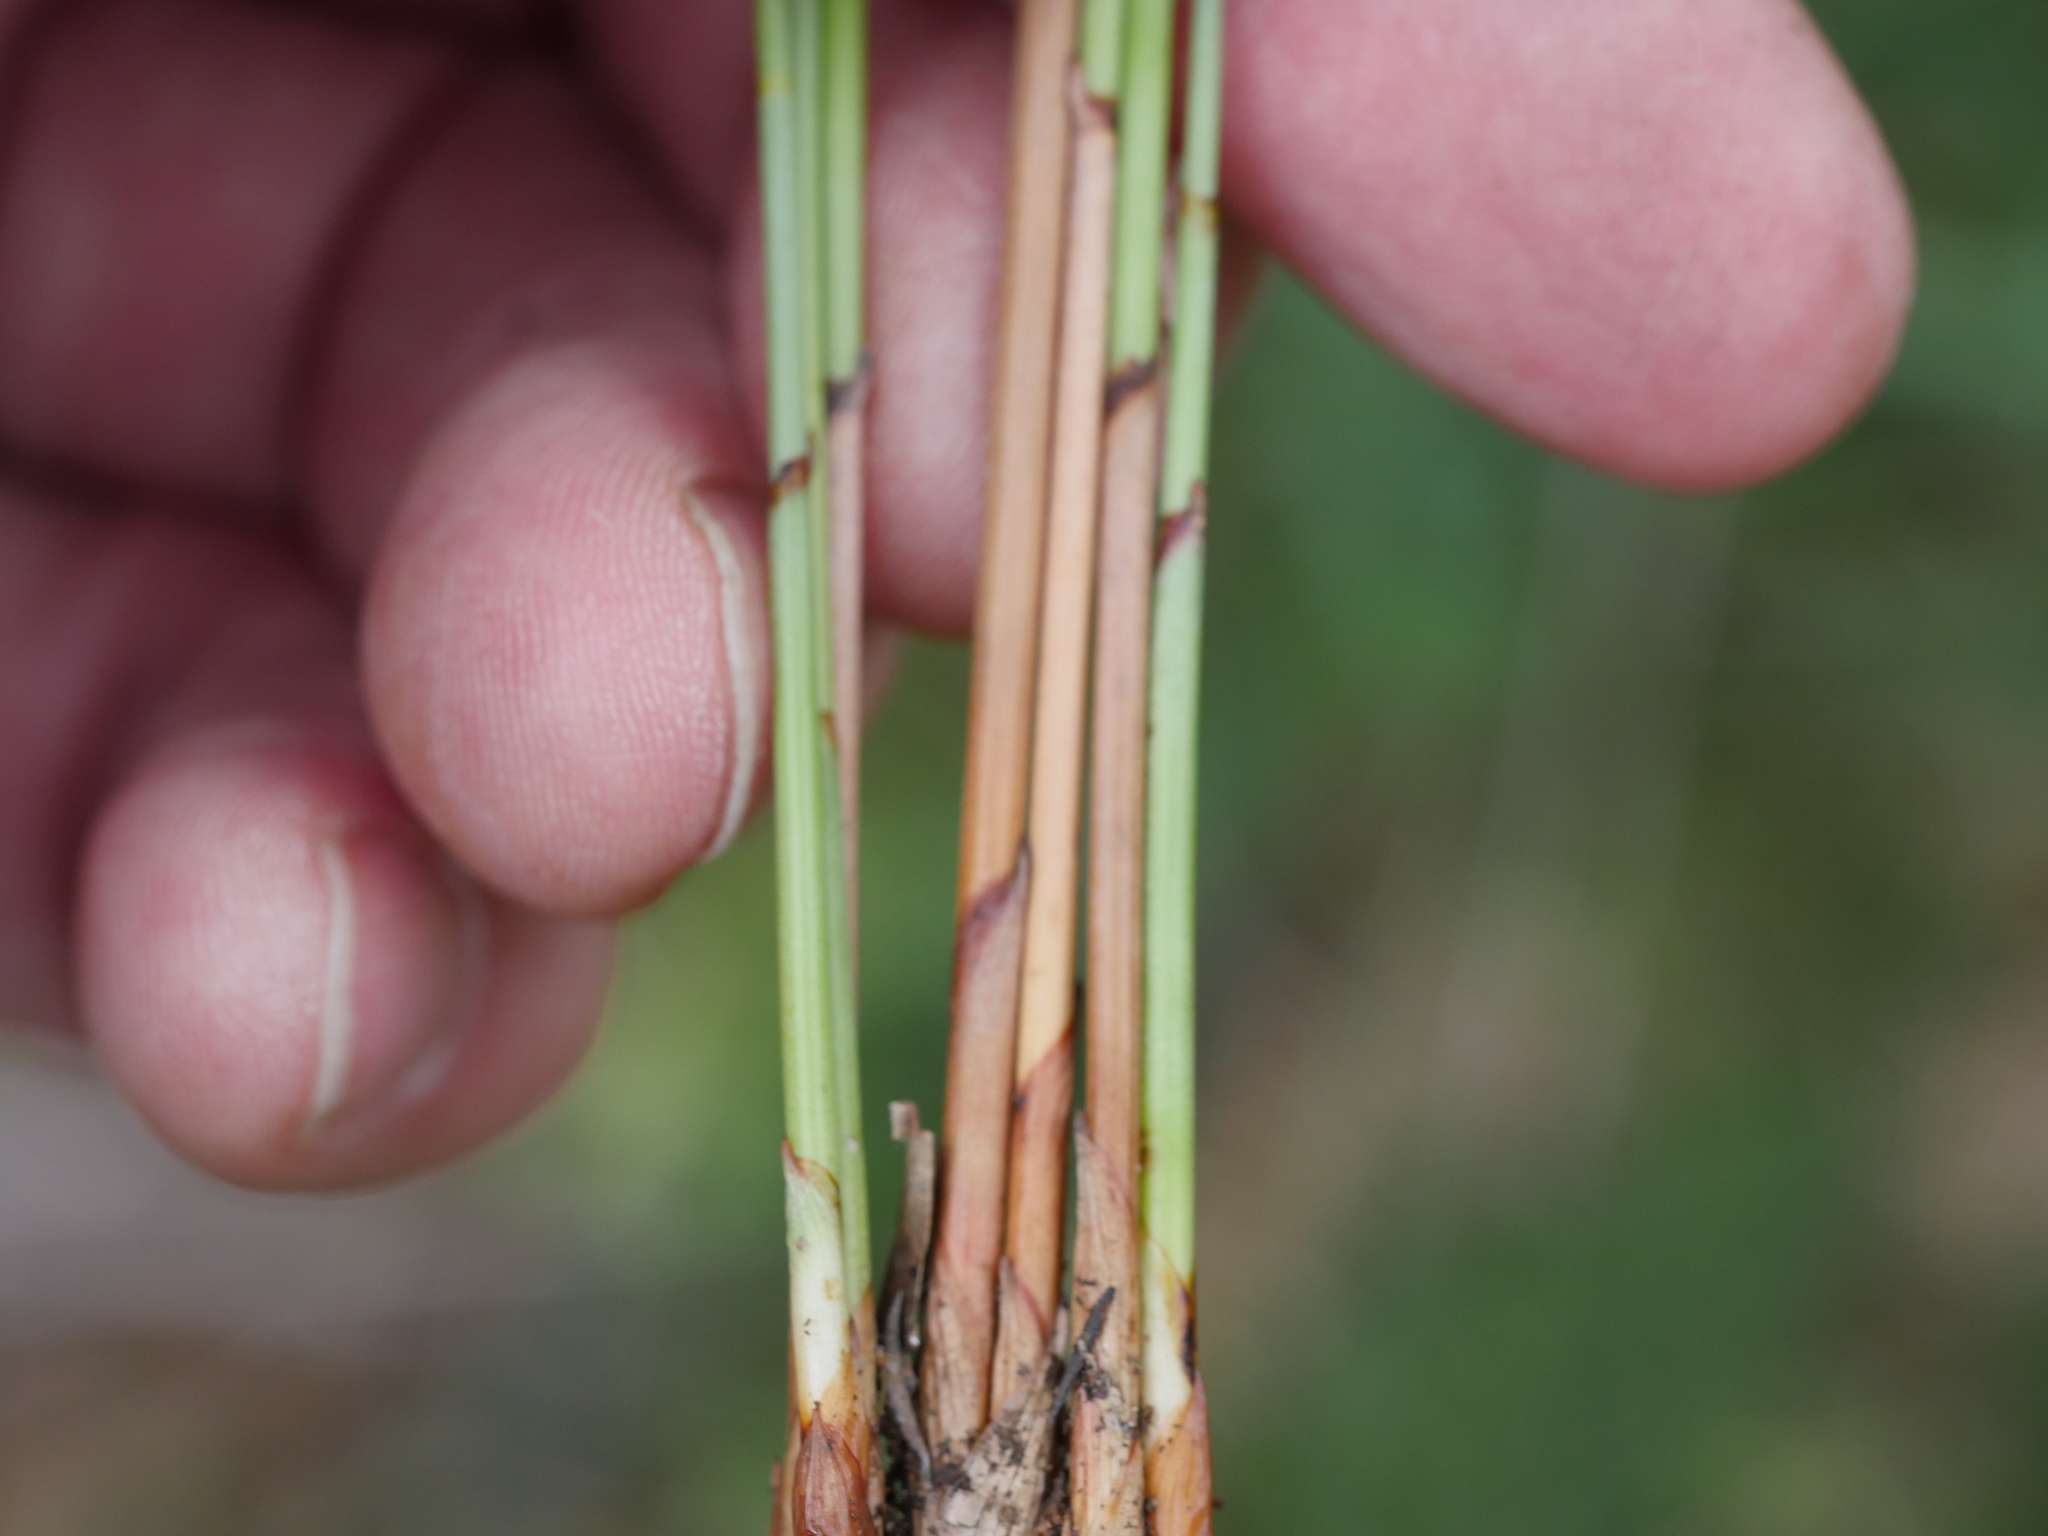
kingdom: Plantae
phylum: Tracheophyta
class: Liliopsida
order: Poales
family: Cyperaceae
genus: Machaerina
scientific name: Machaerina juncea
